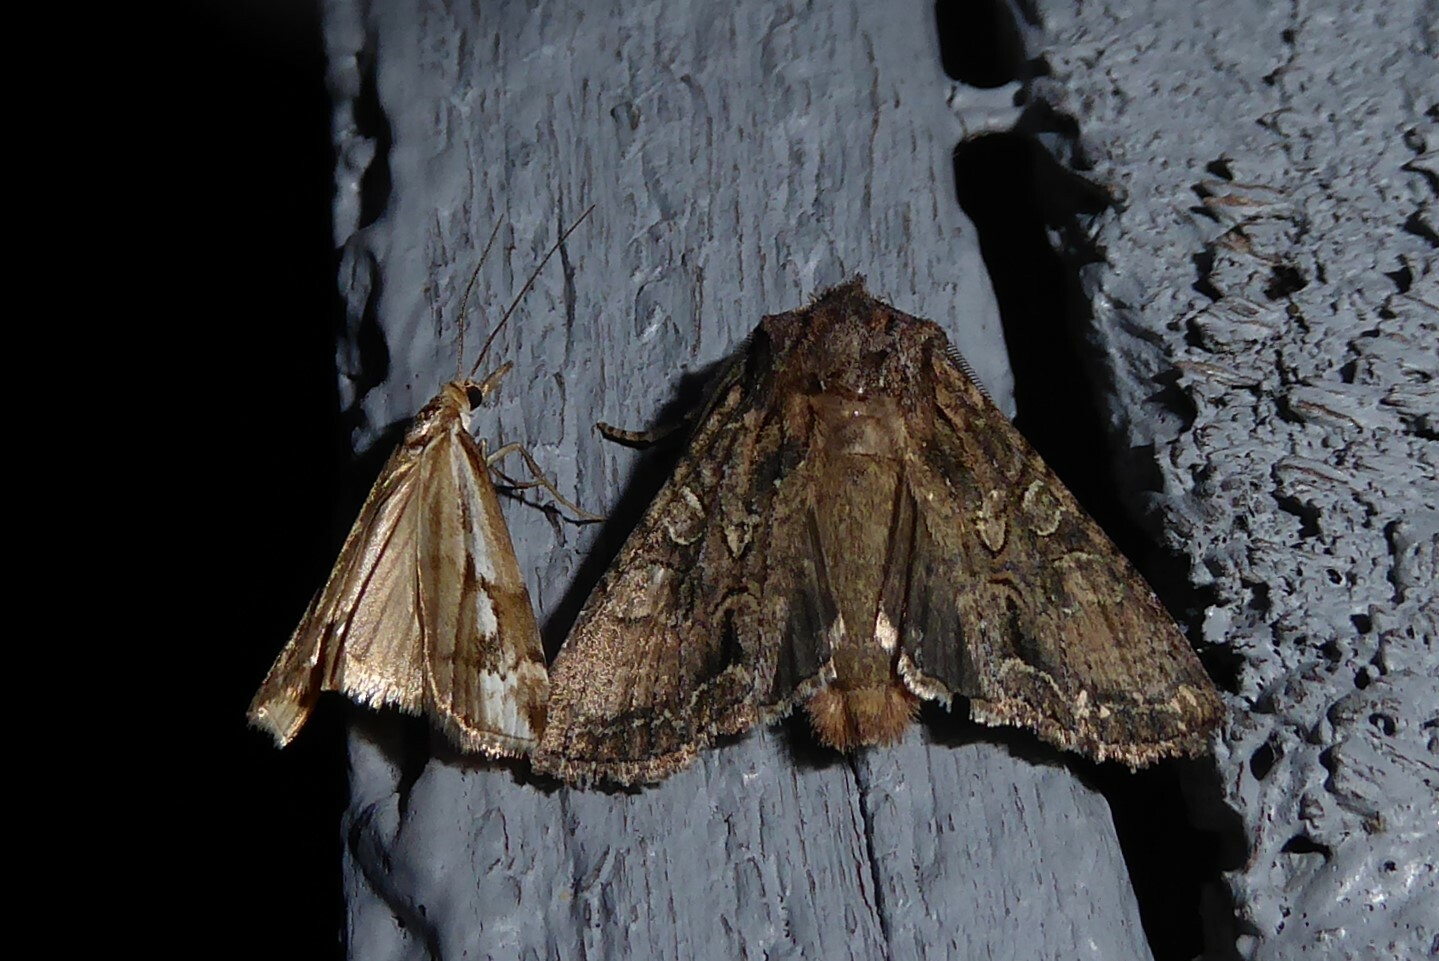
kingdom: Animalia
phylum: Arthropoda
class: Insecta
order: Lepidoptera
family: Noctuidae
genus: Ichneutica
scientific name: Ichneutica mutans
